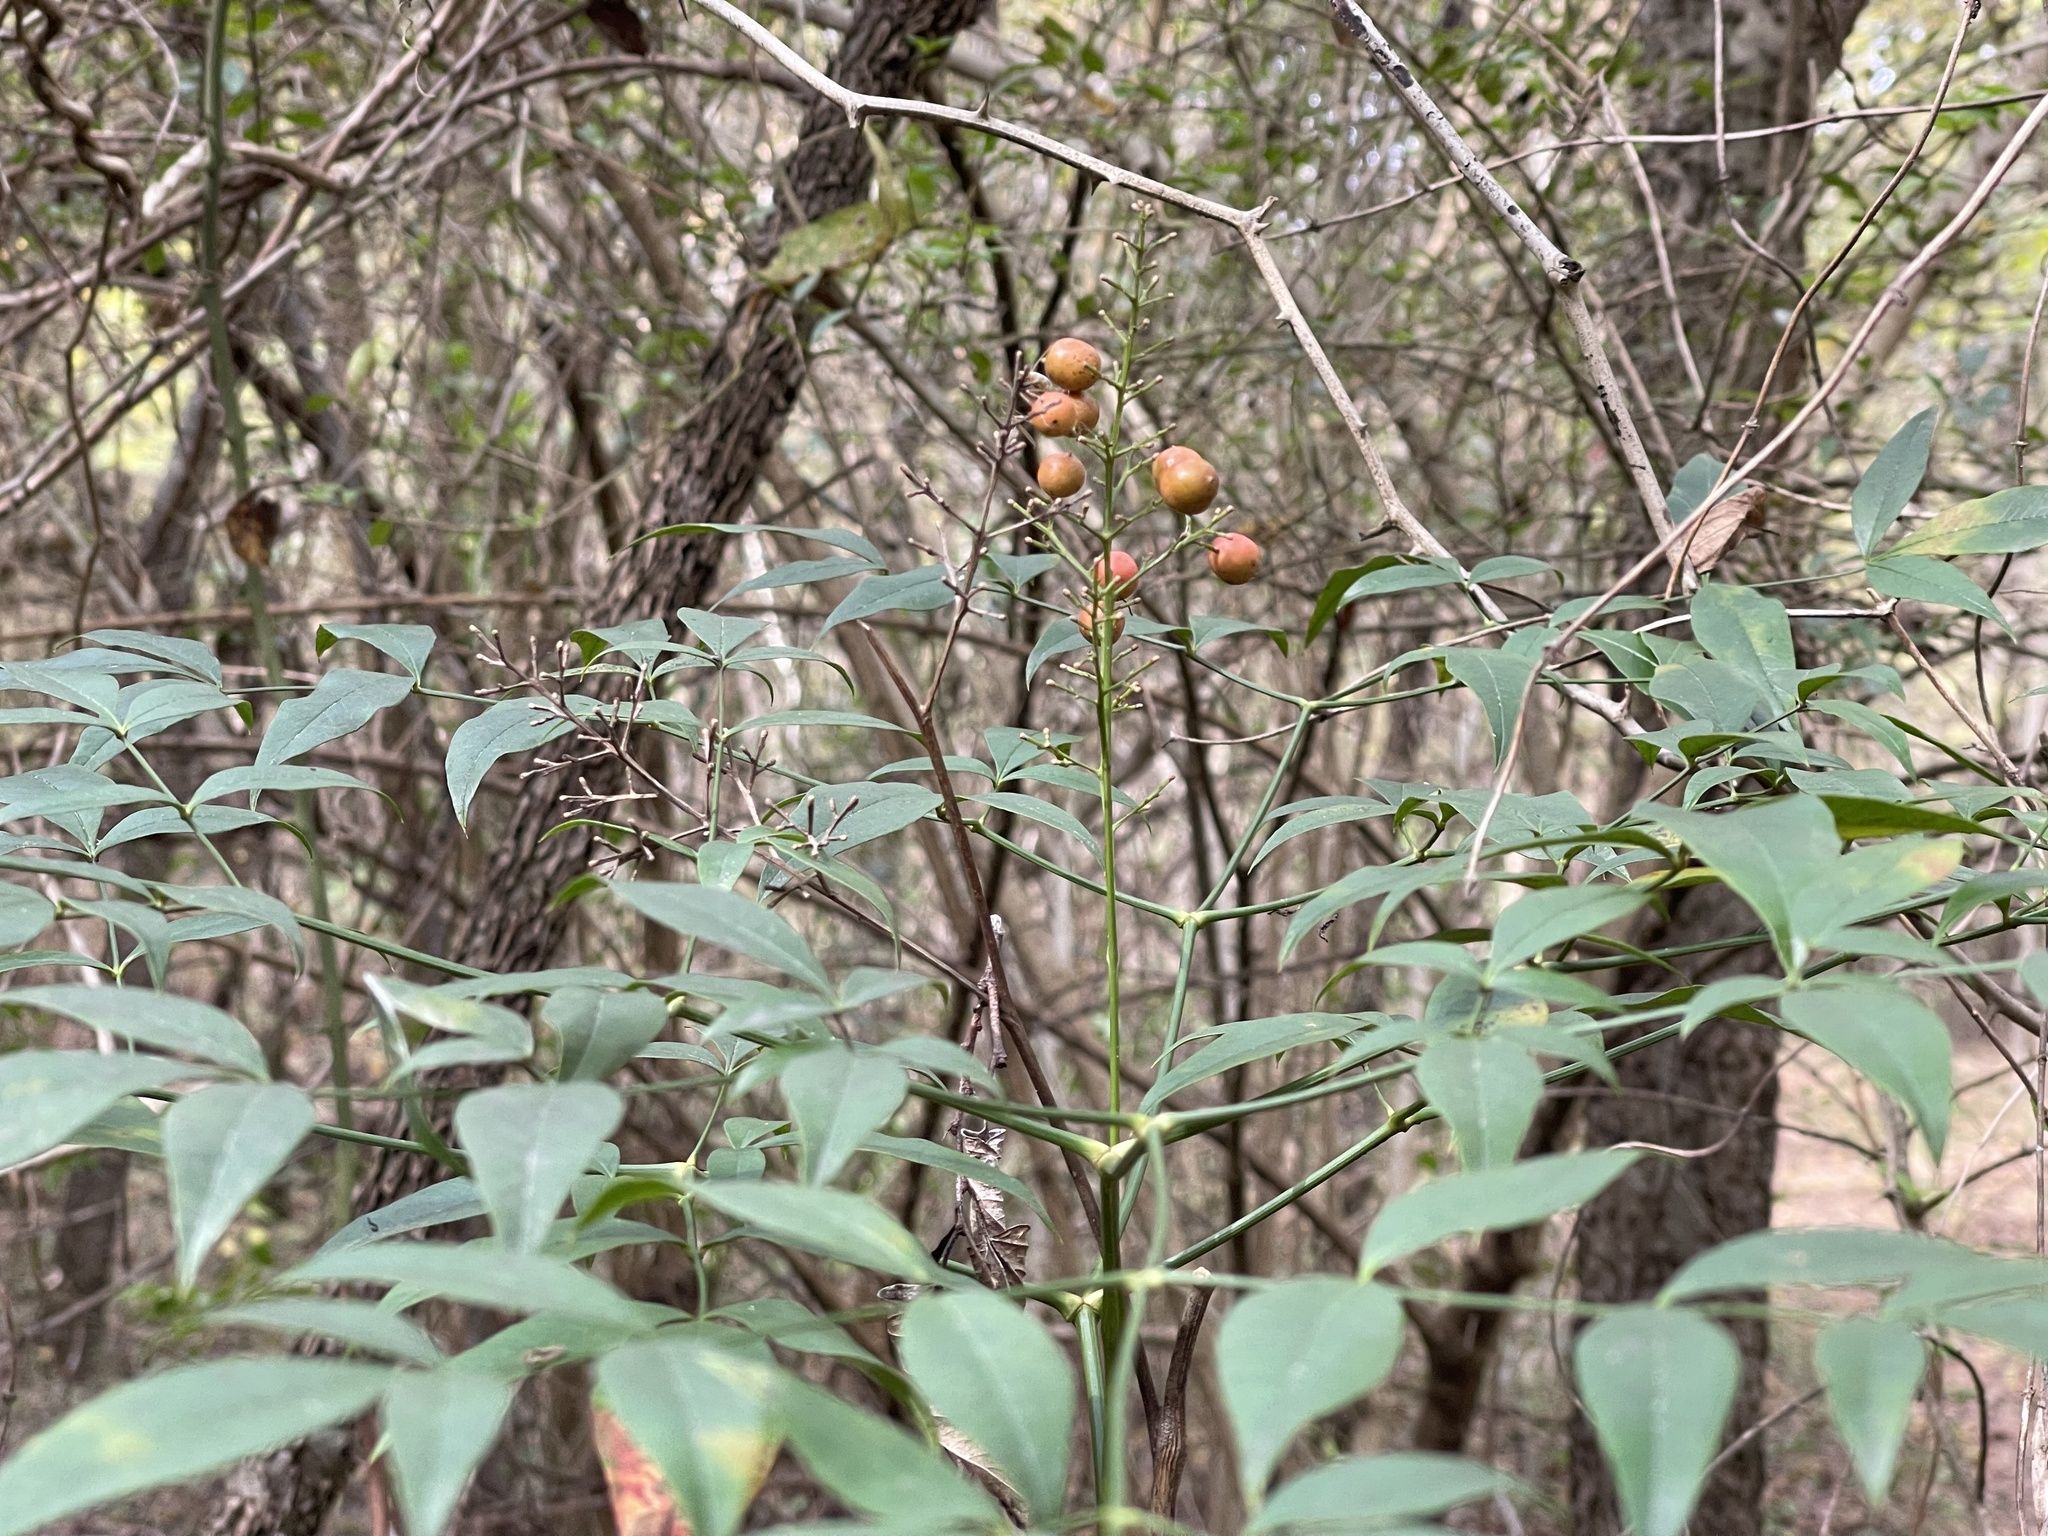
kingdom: Plantae
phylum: Tracheophyta
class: Magnoliopsida
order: Ranunculales
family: Berberidaceae
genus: Nandina
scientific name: Nandina domestica
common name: Sacred bamboo
